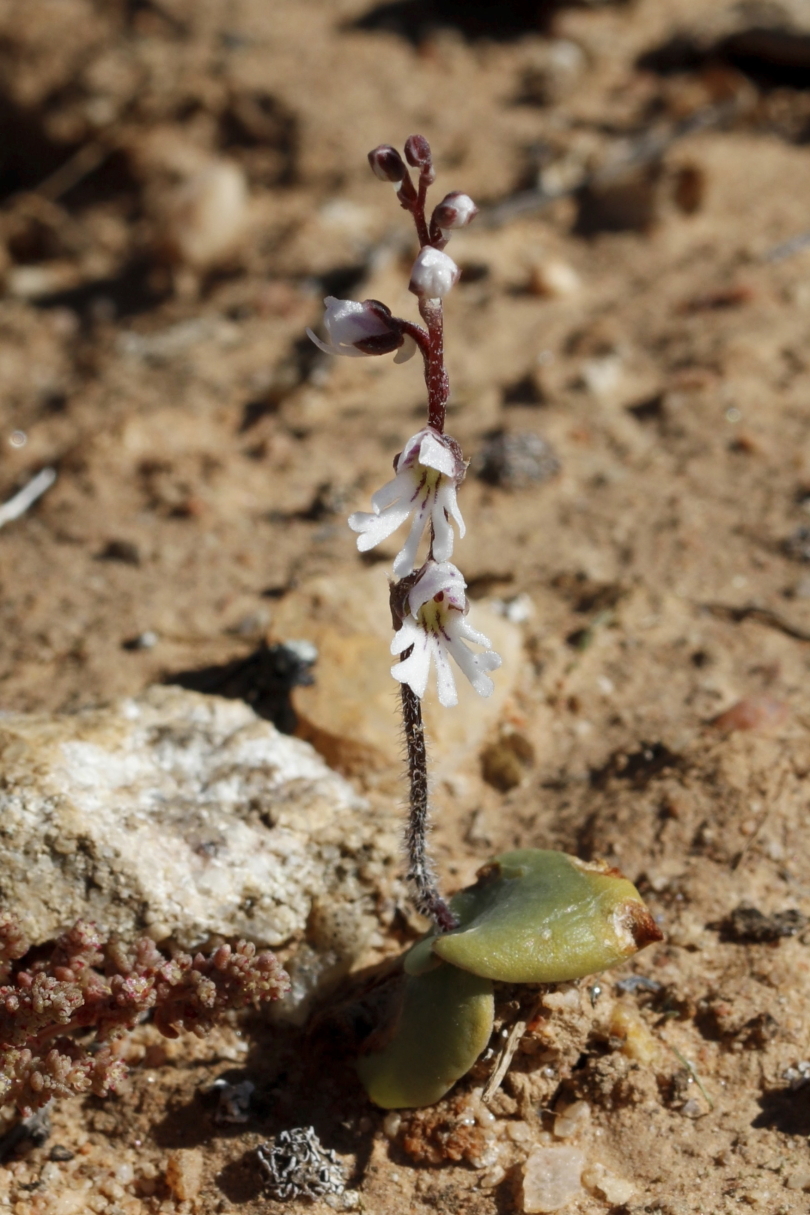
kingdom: Plantae
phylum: Tracheophyta
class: Liliopsida
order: Asparagales
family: Orchidaceae
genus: Holothrix
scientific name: Holothrix aspera
